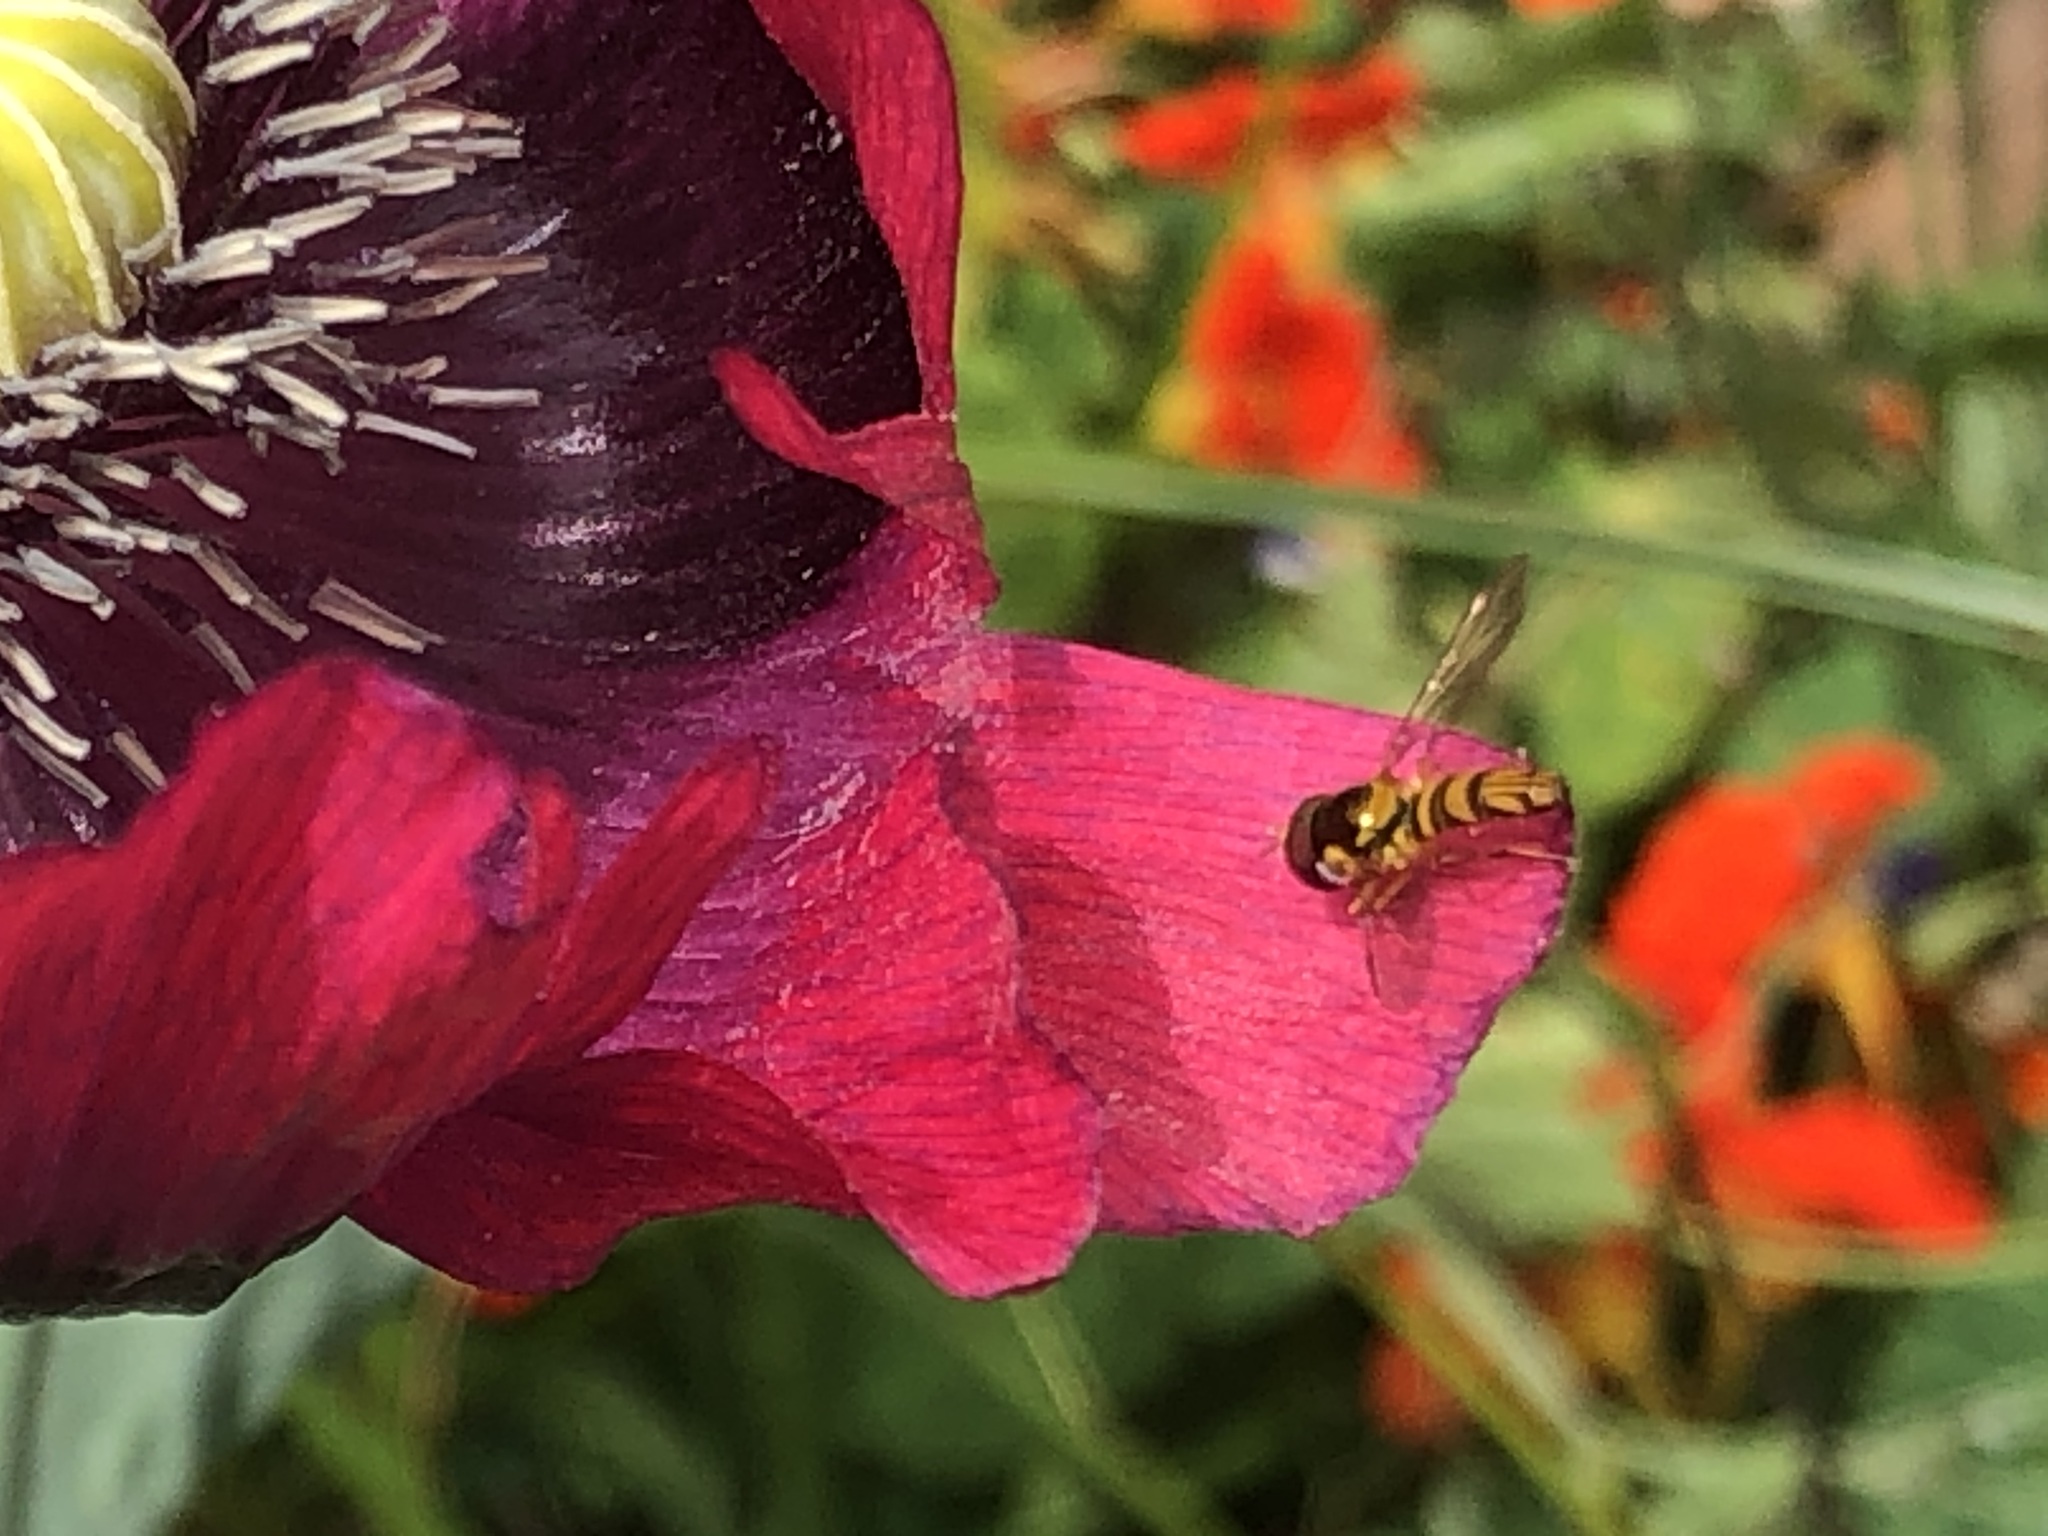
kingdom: Animalia
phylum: Arthropoda
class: Insecta
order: Diptera
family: Syrphidae
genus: Allograpta
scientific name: Allograpta obliqua
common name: Common oblique syrphid
